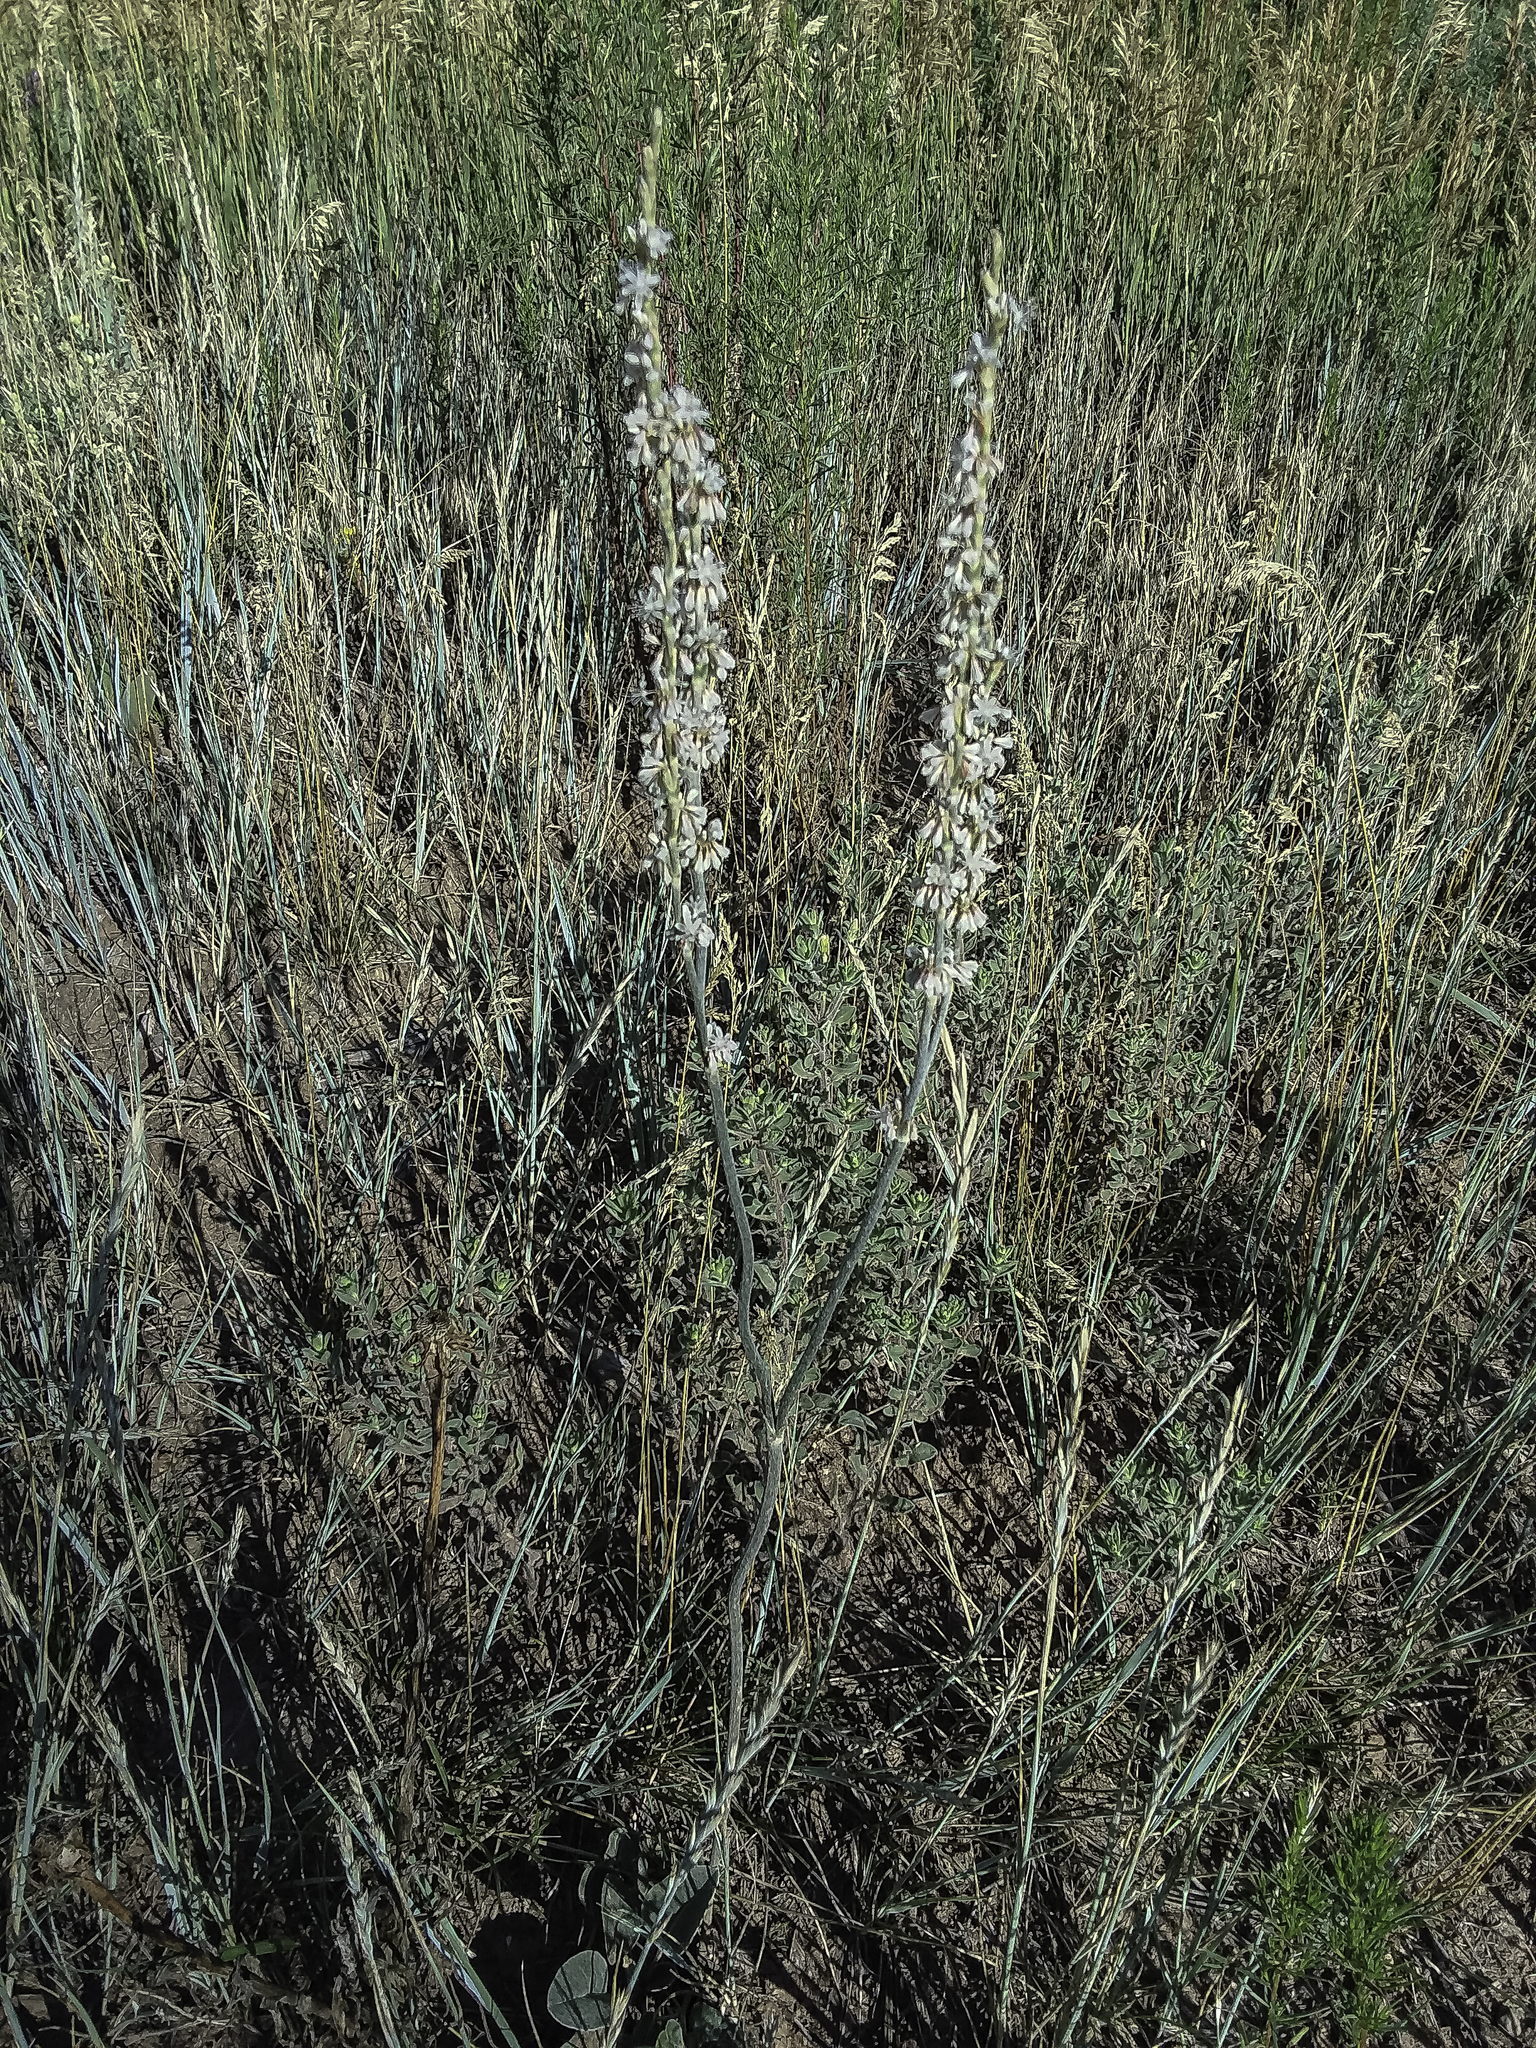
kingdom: Plantae
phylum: Tracheophyta
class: Magnoliopsida
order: Caryophyllales
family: Polygonaceae
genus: Eriogonum
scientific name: Eriogonum racemosum
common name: Redroot wild buckwheat
